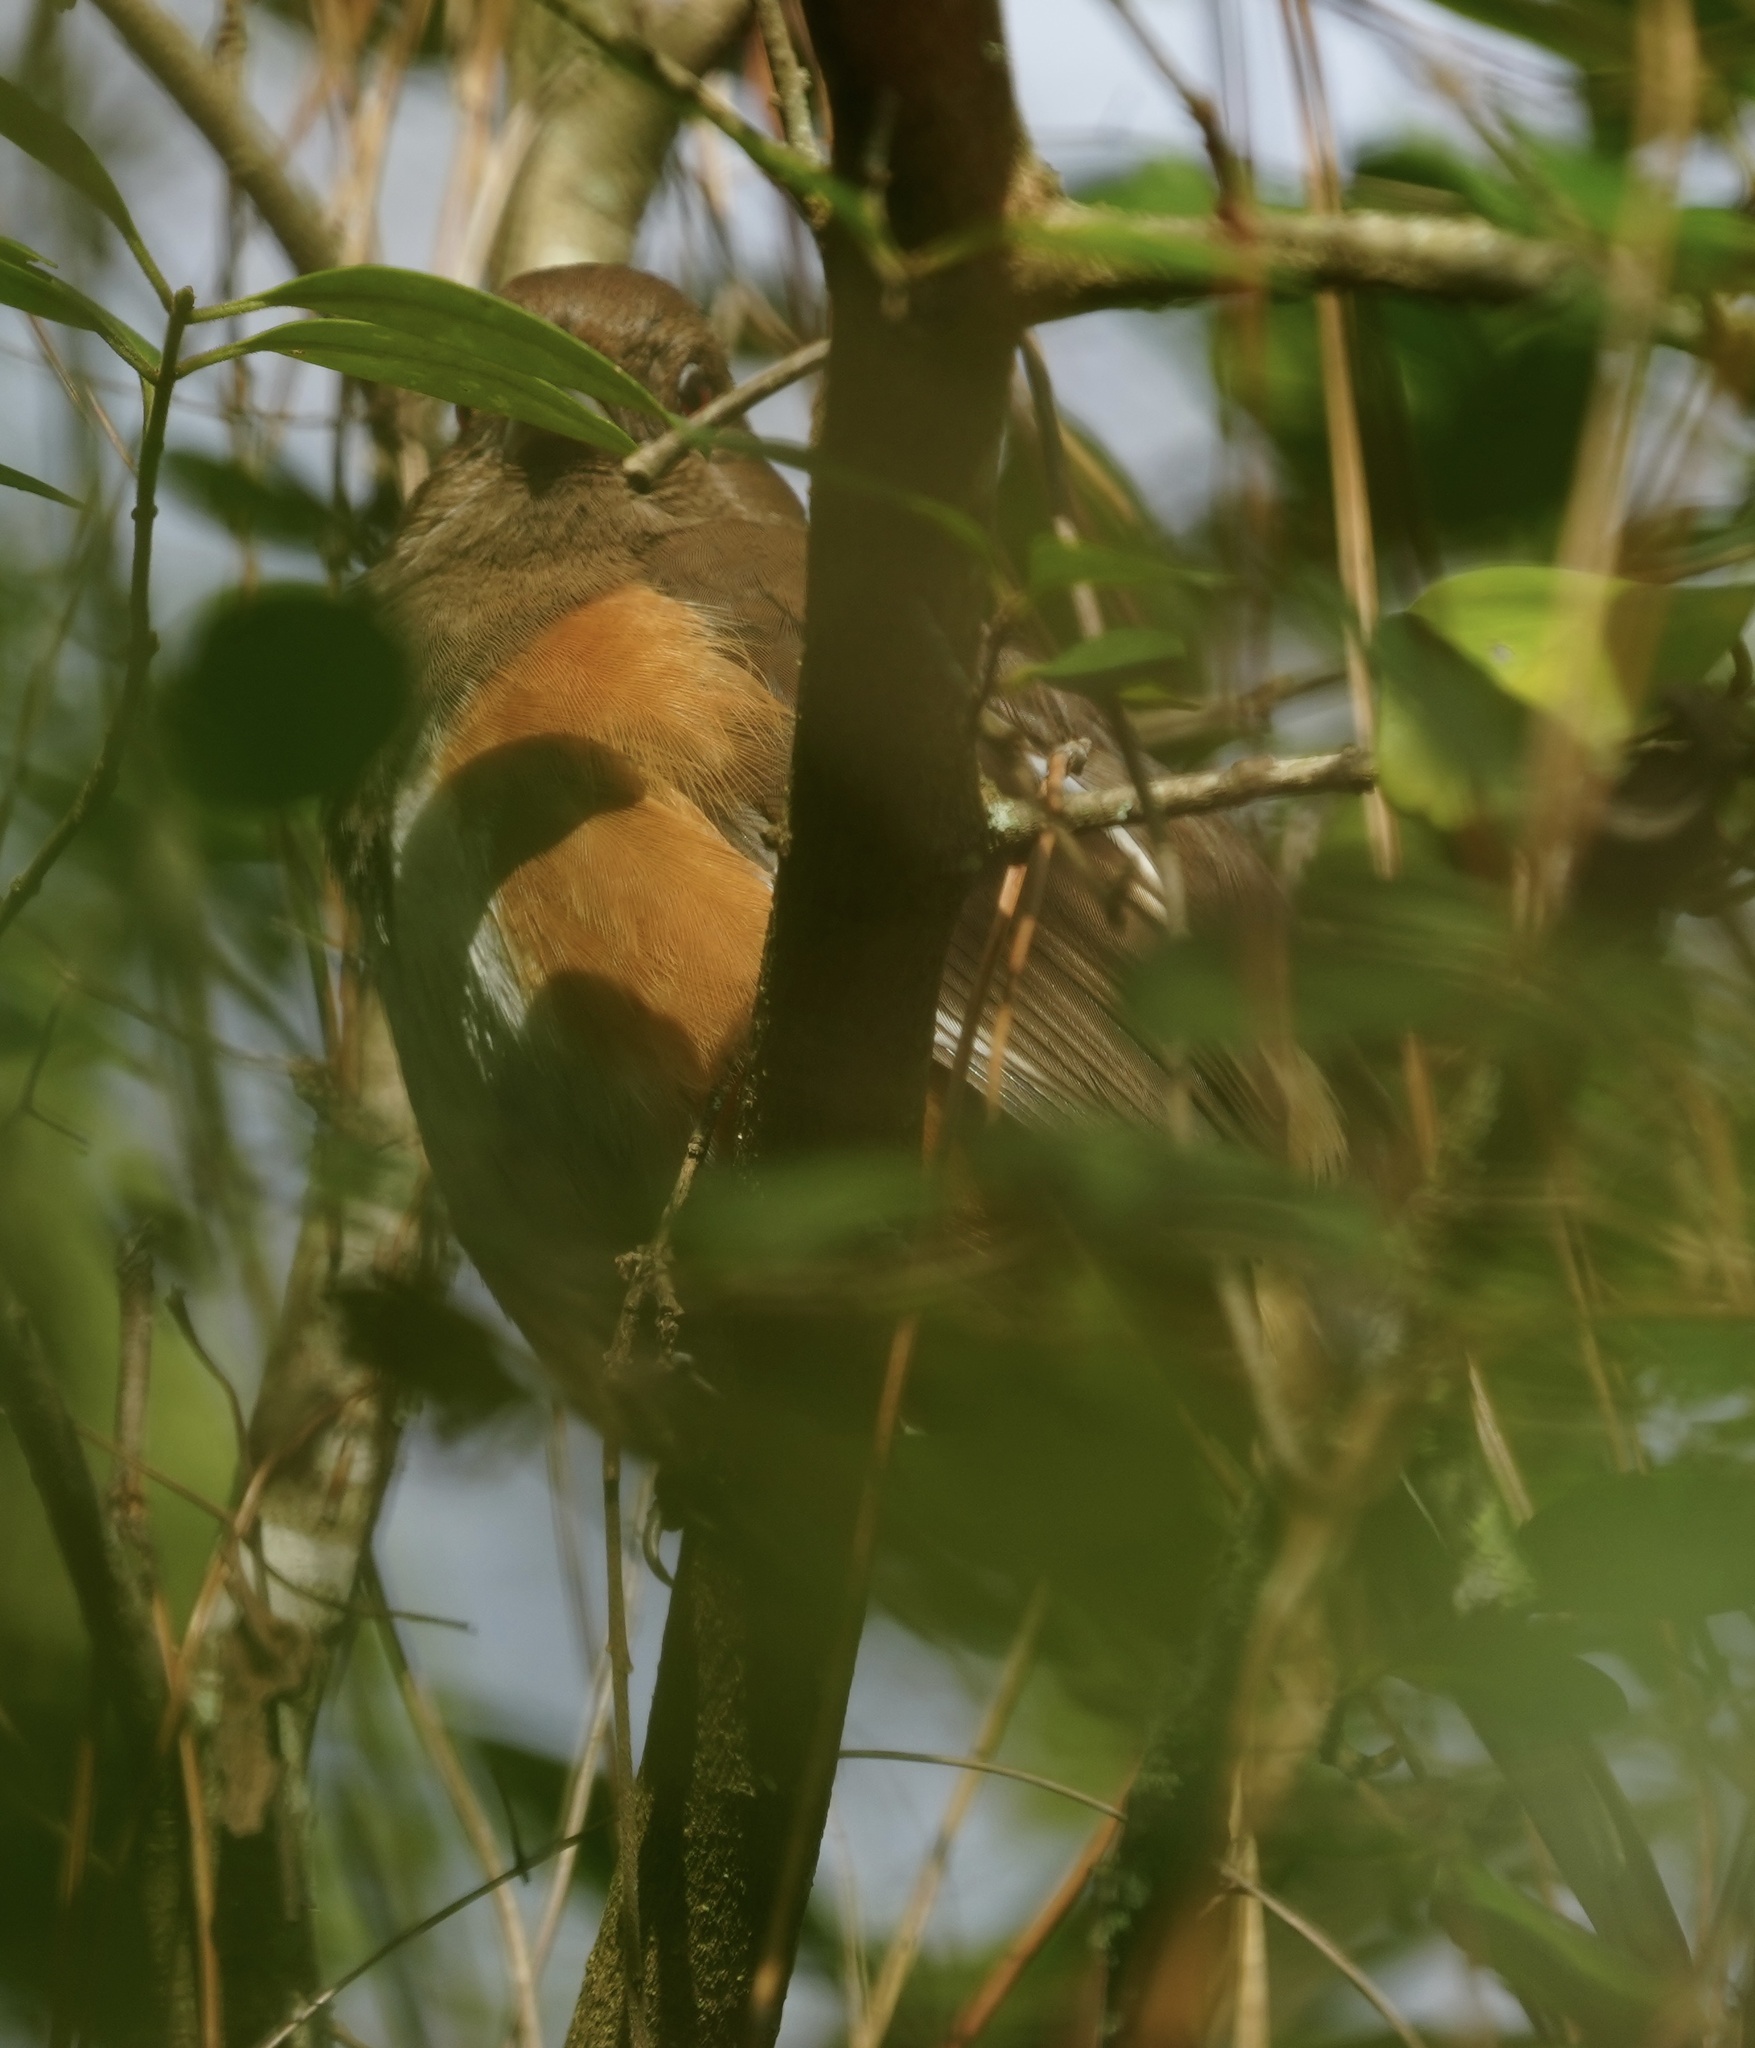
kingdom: Animalia
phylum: Chordata
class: Aves
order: Passeriformes
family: Passerellidae
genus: Pipilo
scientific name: Pipilo erythrophthalmus
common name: Eastern towhee
